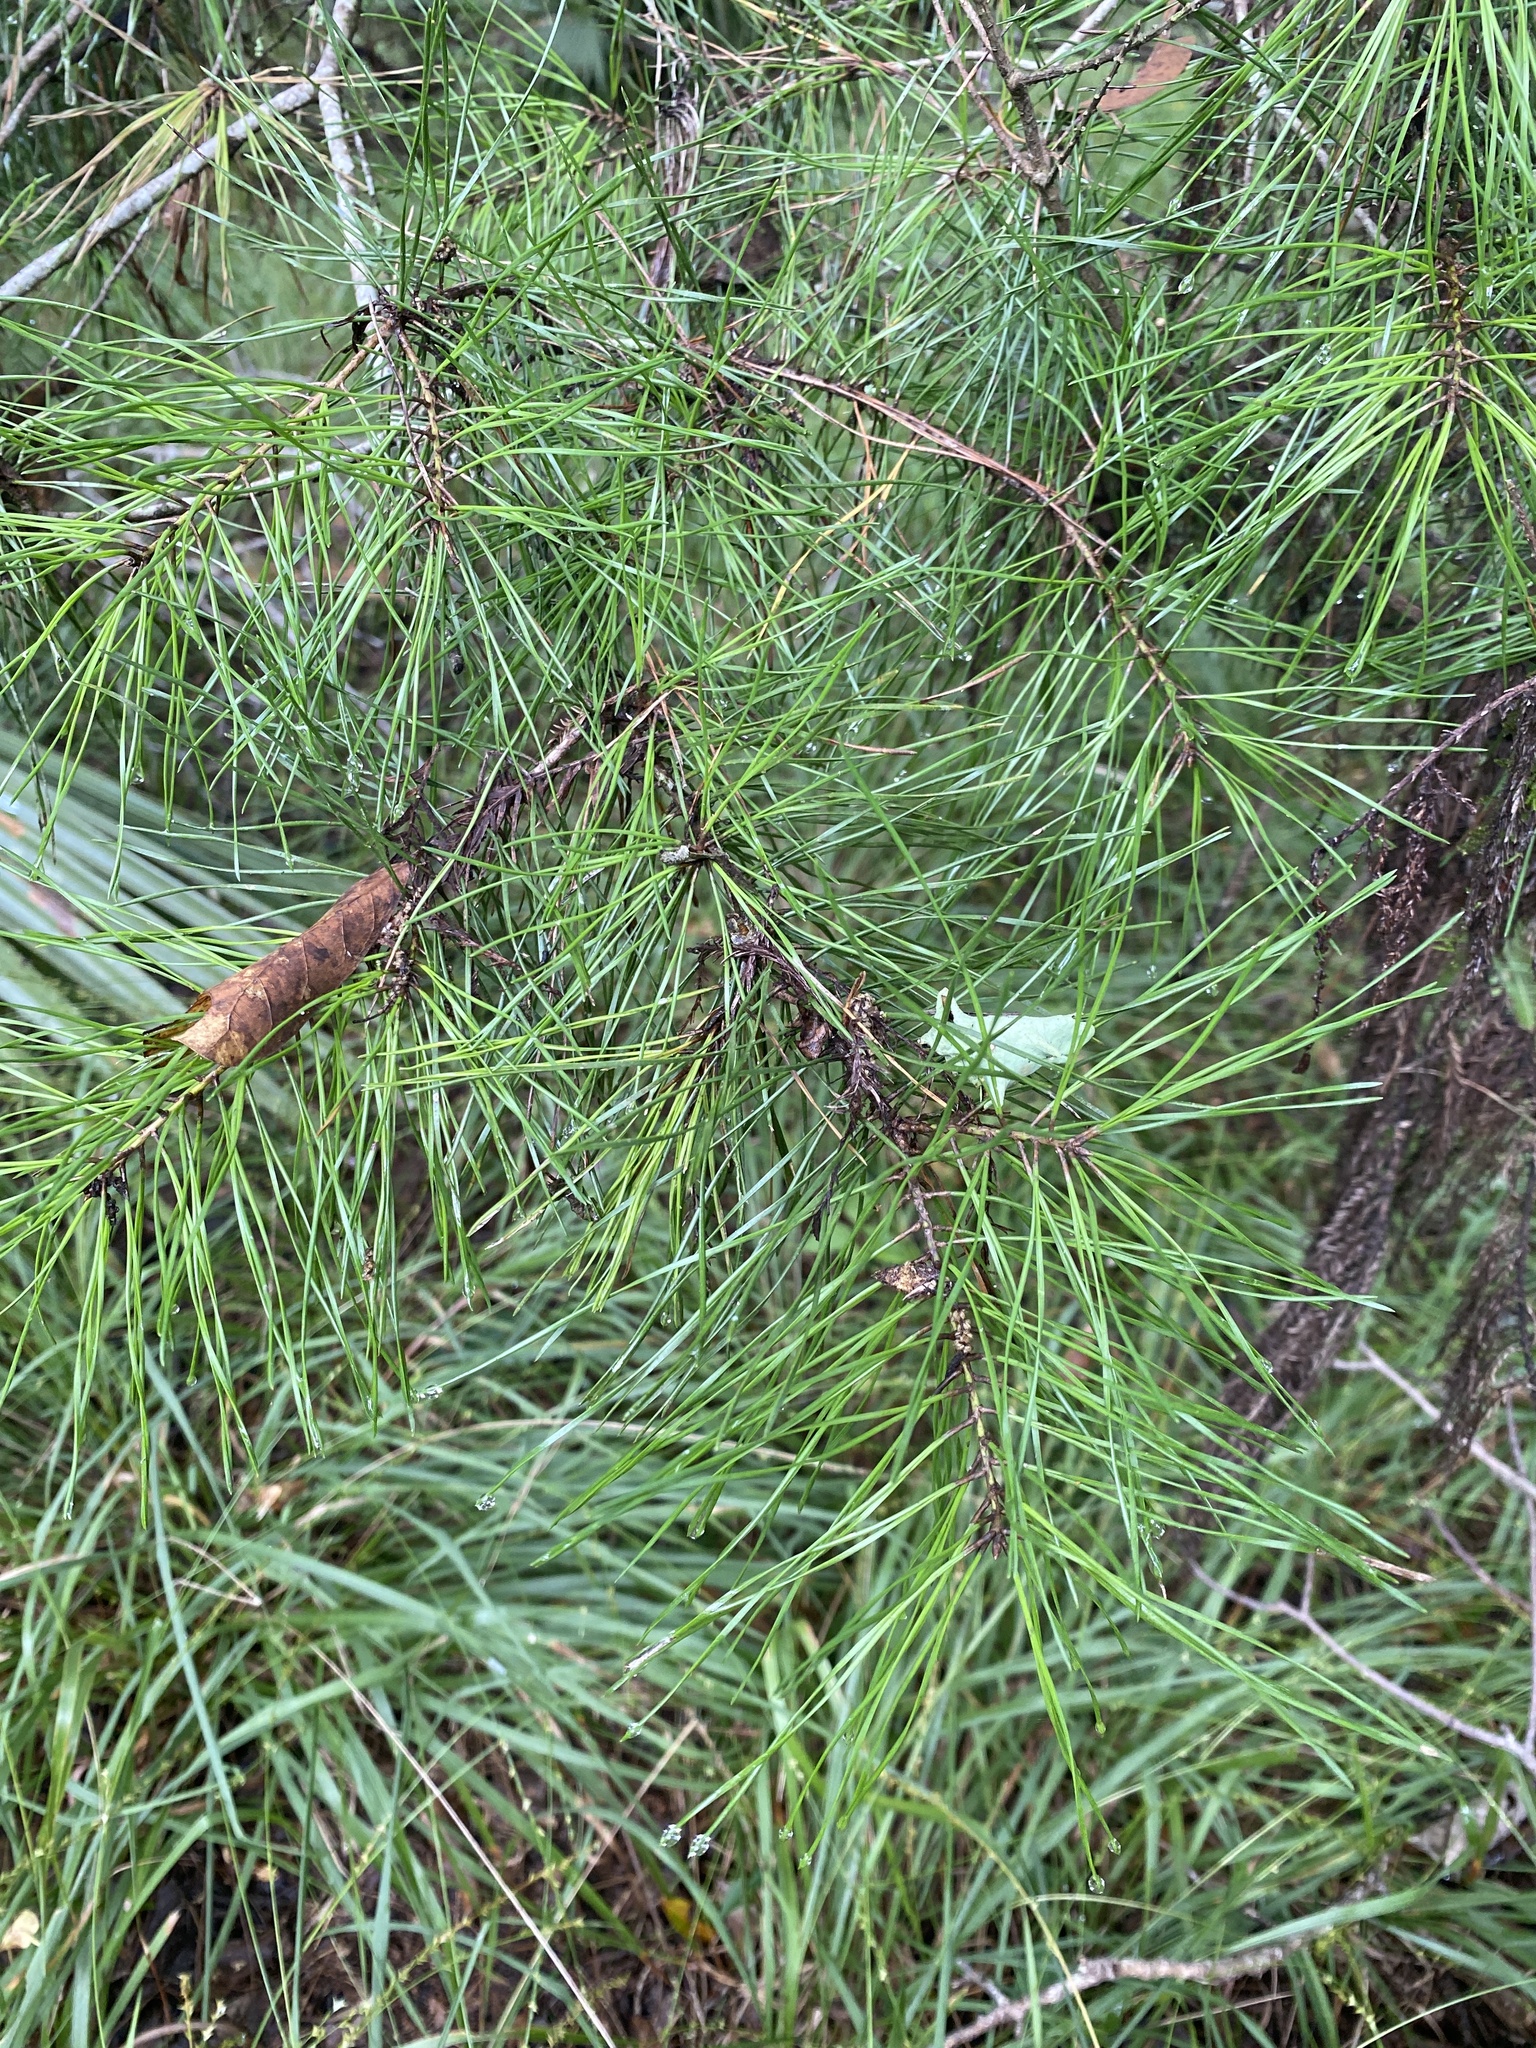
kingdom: Plantae
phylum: Tracheophyta
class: Pinopsida
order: Pinales
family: Pinaceae
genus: Pinus
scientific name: Pinus glabra
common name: Spruce pine
